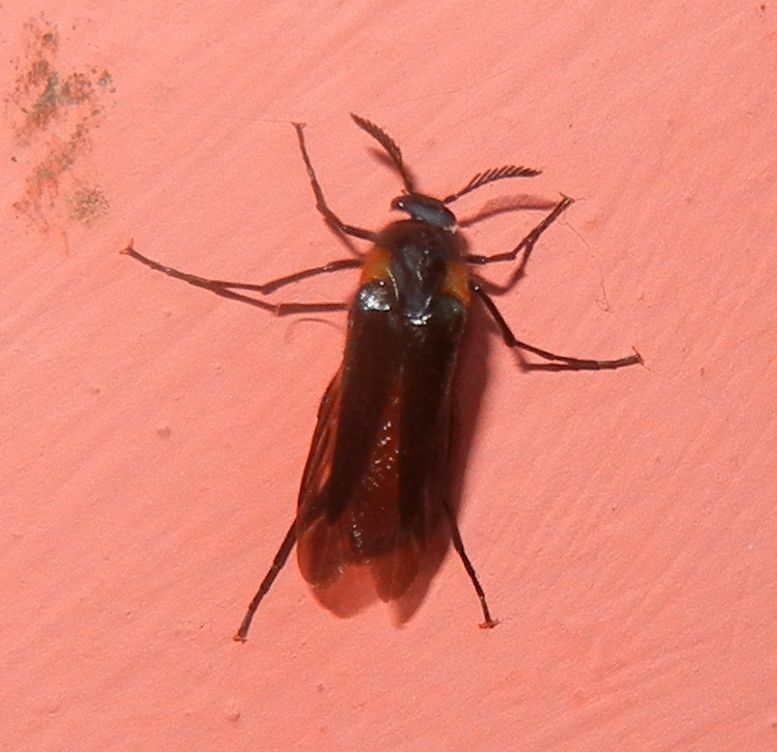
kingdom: Animalia
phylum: Arthropoda
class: Insecta
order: Coleoptera
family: Ripiphoridae
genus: Metoecus
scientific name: Metoecus paradoxus
